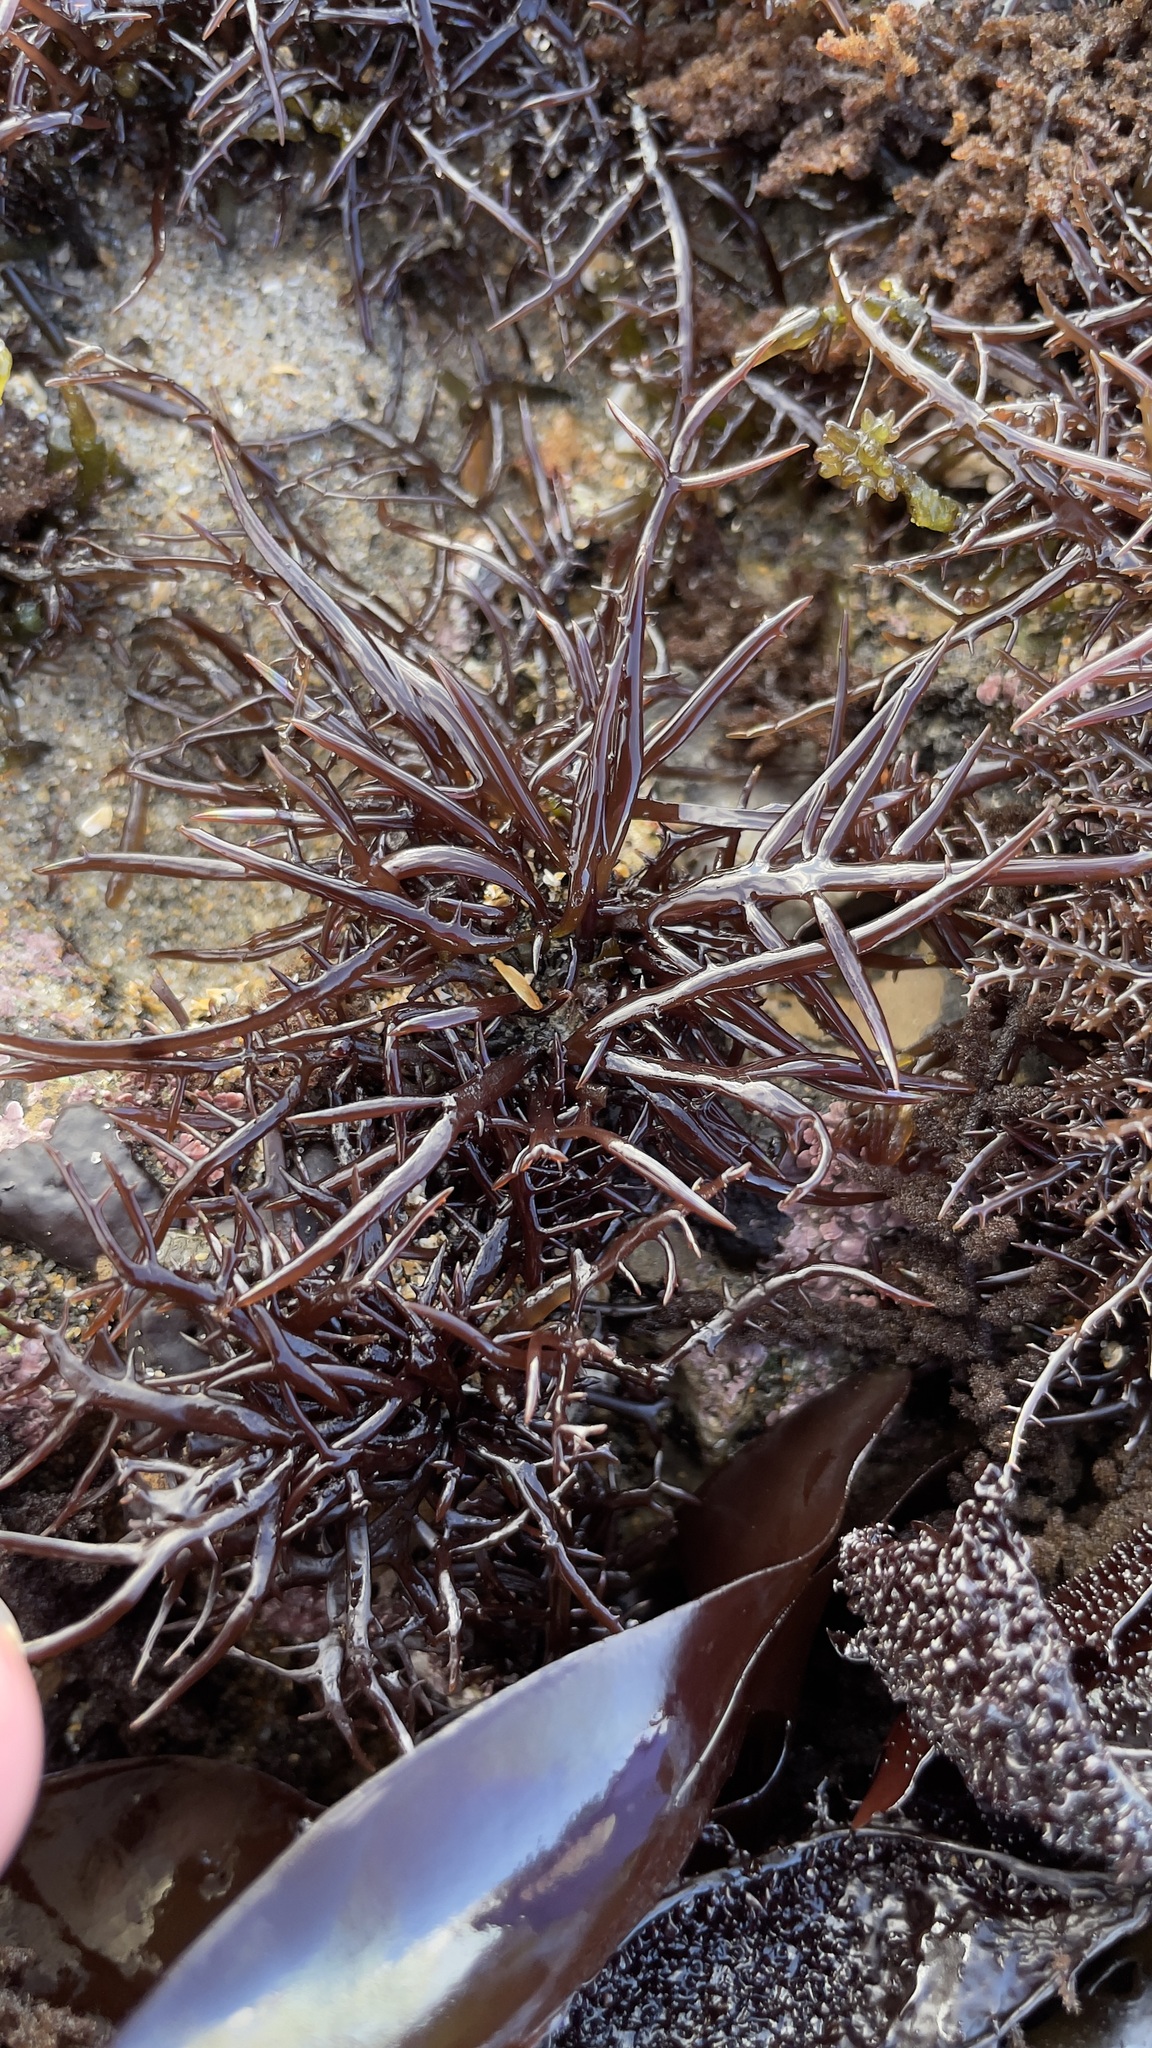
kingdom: Plantae
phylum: Rhodophyta
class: Florideophyceae
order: Gigartinales
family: Gigartinaceae
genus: Chondracanthus
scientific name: Chondracanthus canaliculatus
